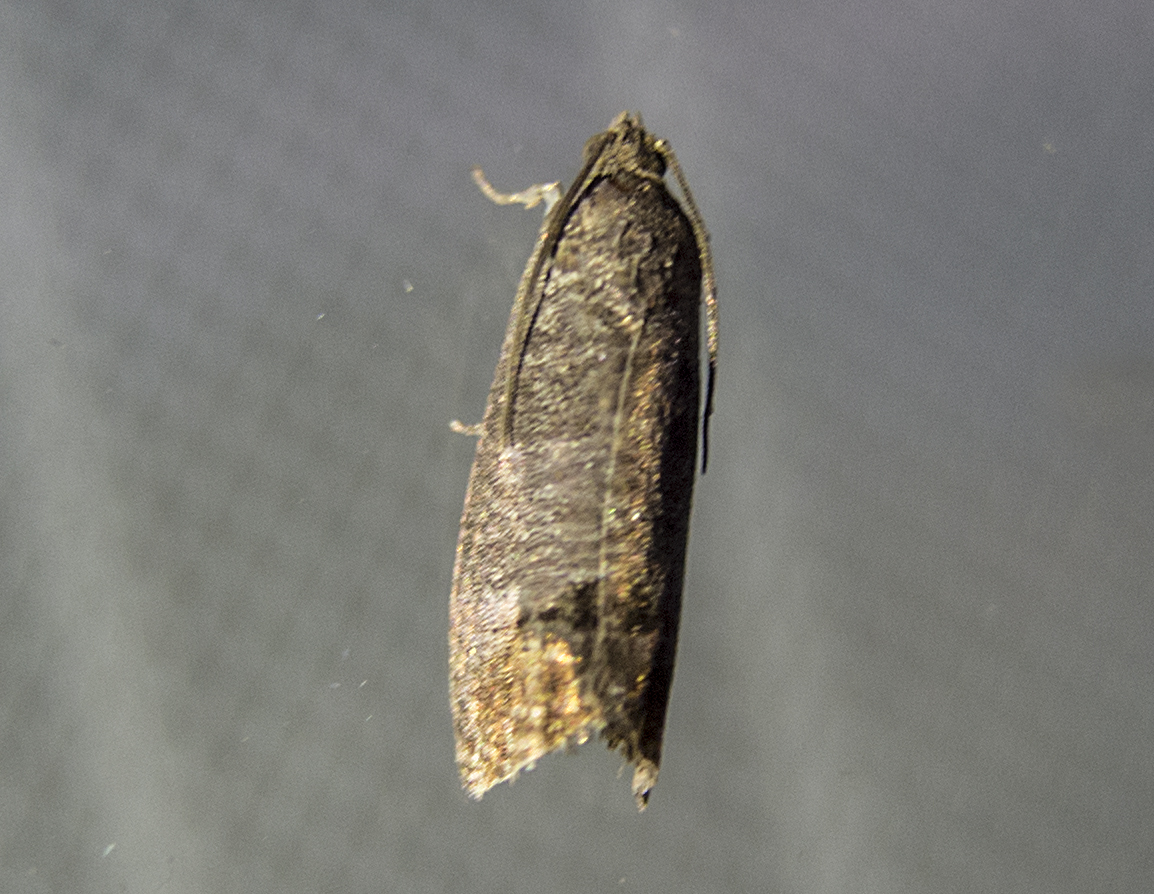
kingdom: Animalia
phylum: Arthropoda
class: Insecta
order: Lepidoptera
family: Tortricidae
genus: Cydia
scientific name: Cydia pomonella
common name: Codling moth
